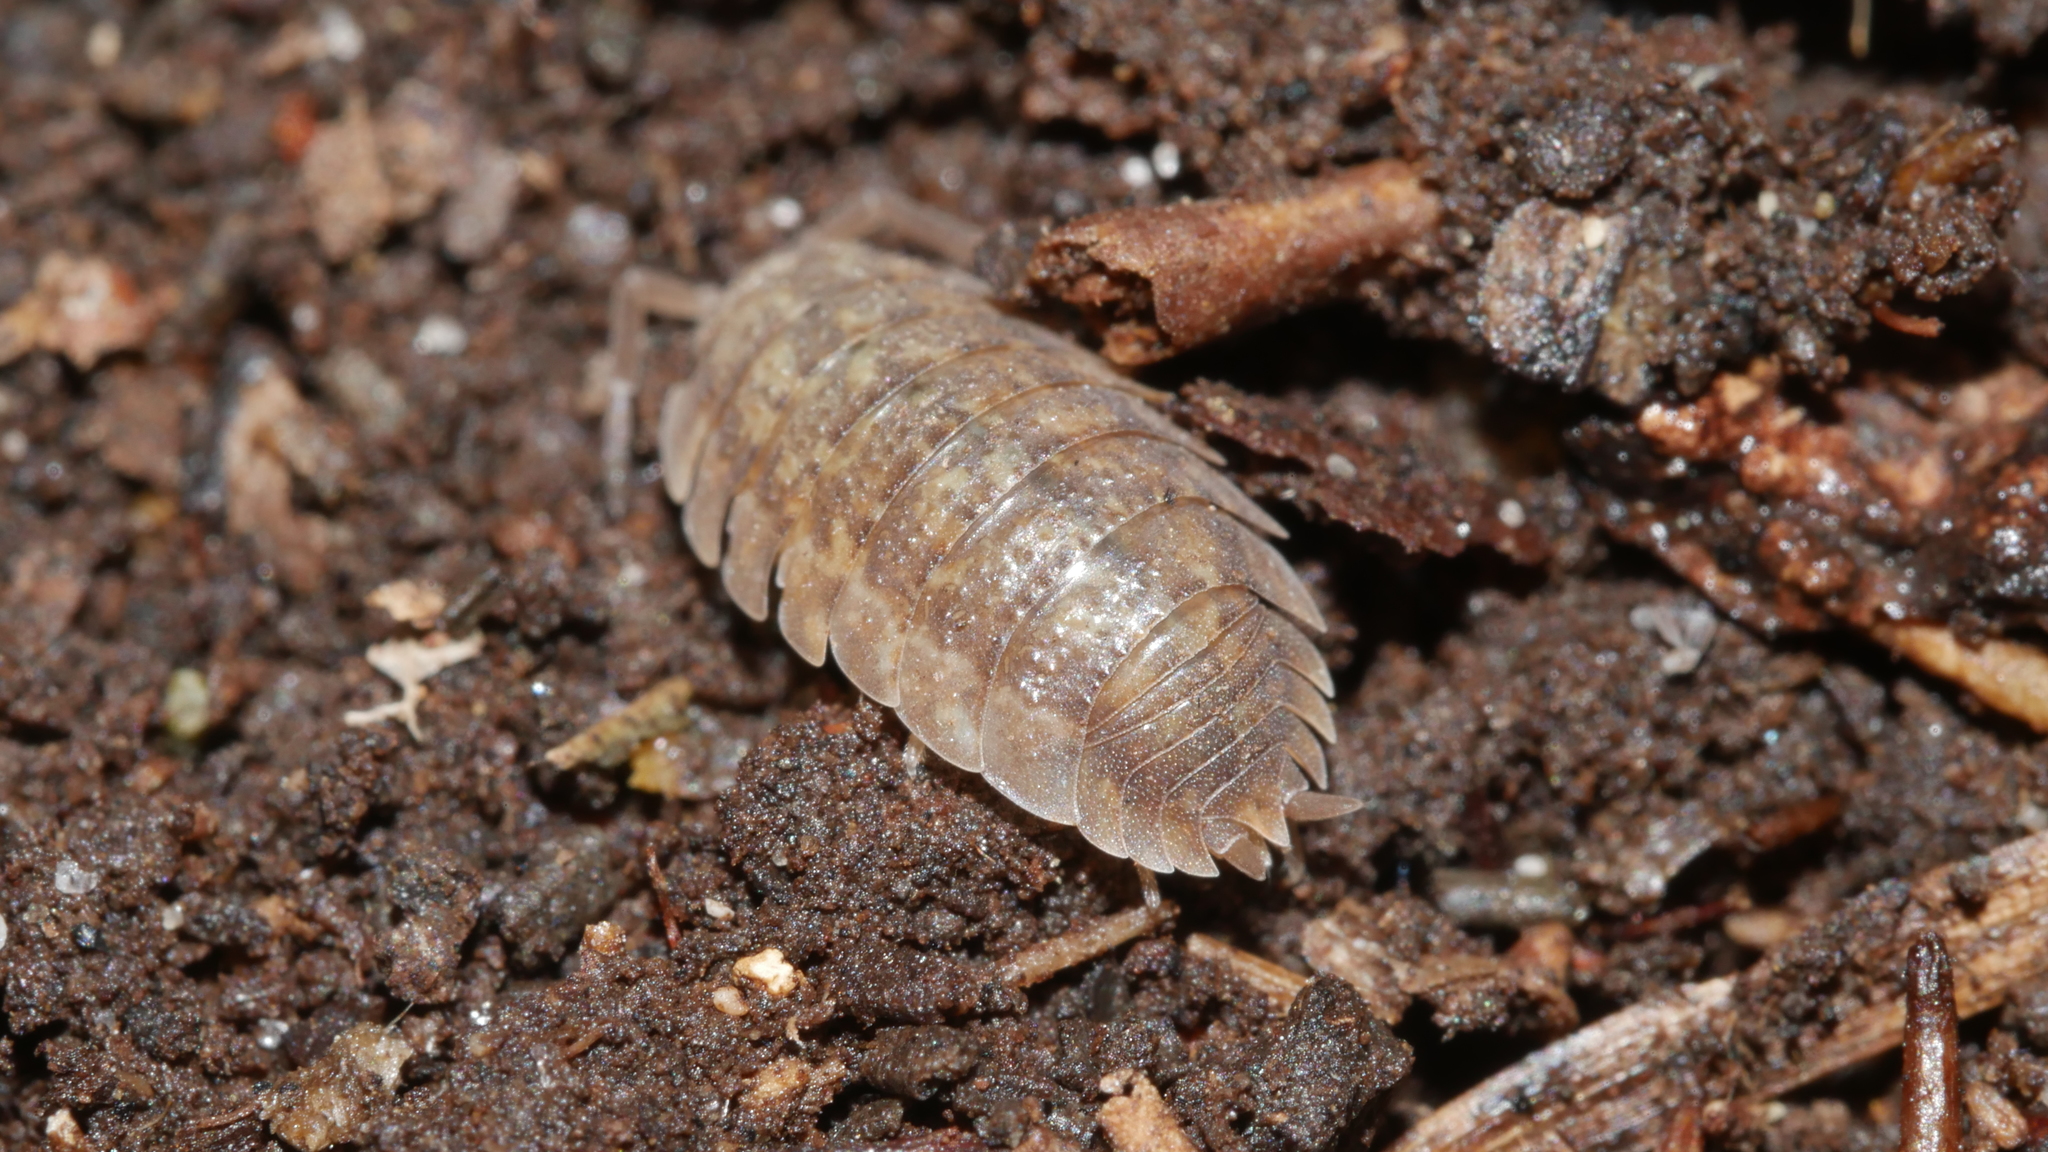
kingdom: Animalia
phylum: Arthropoda
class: Malacostraca
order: Isopoda
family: Porcellionidae
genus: Porcellio
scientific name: Porcellio scaber
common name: Common rough woodlouse
